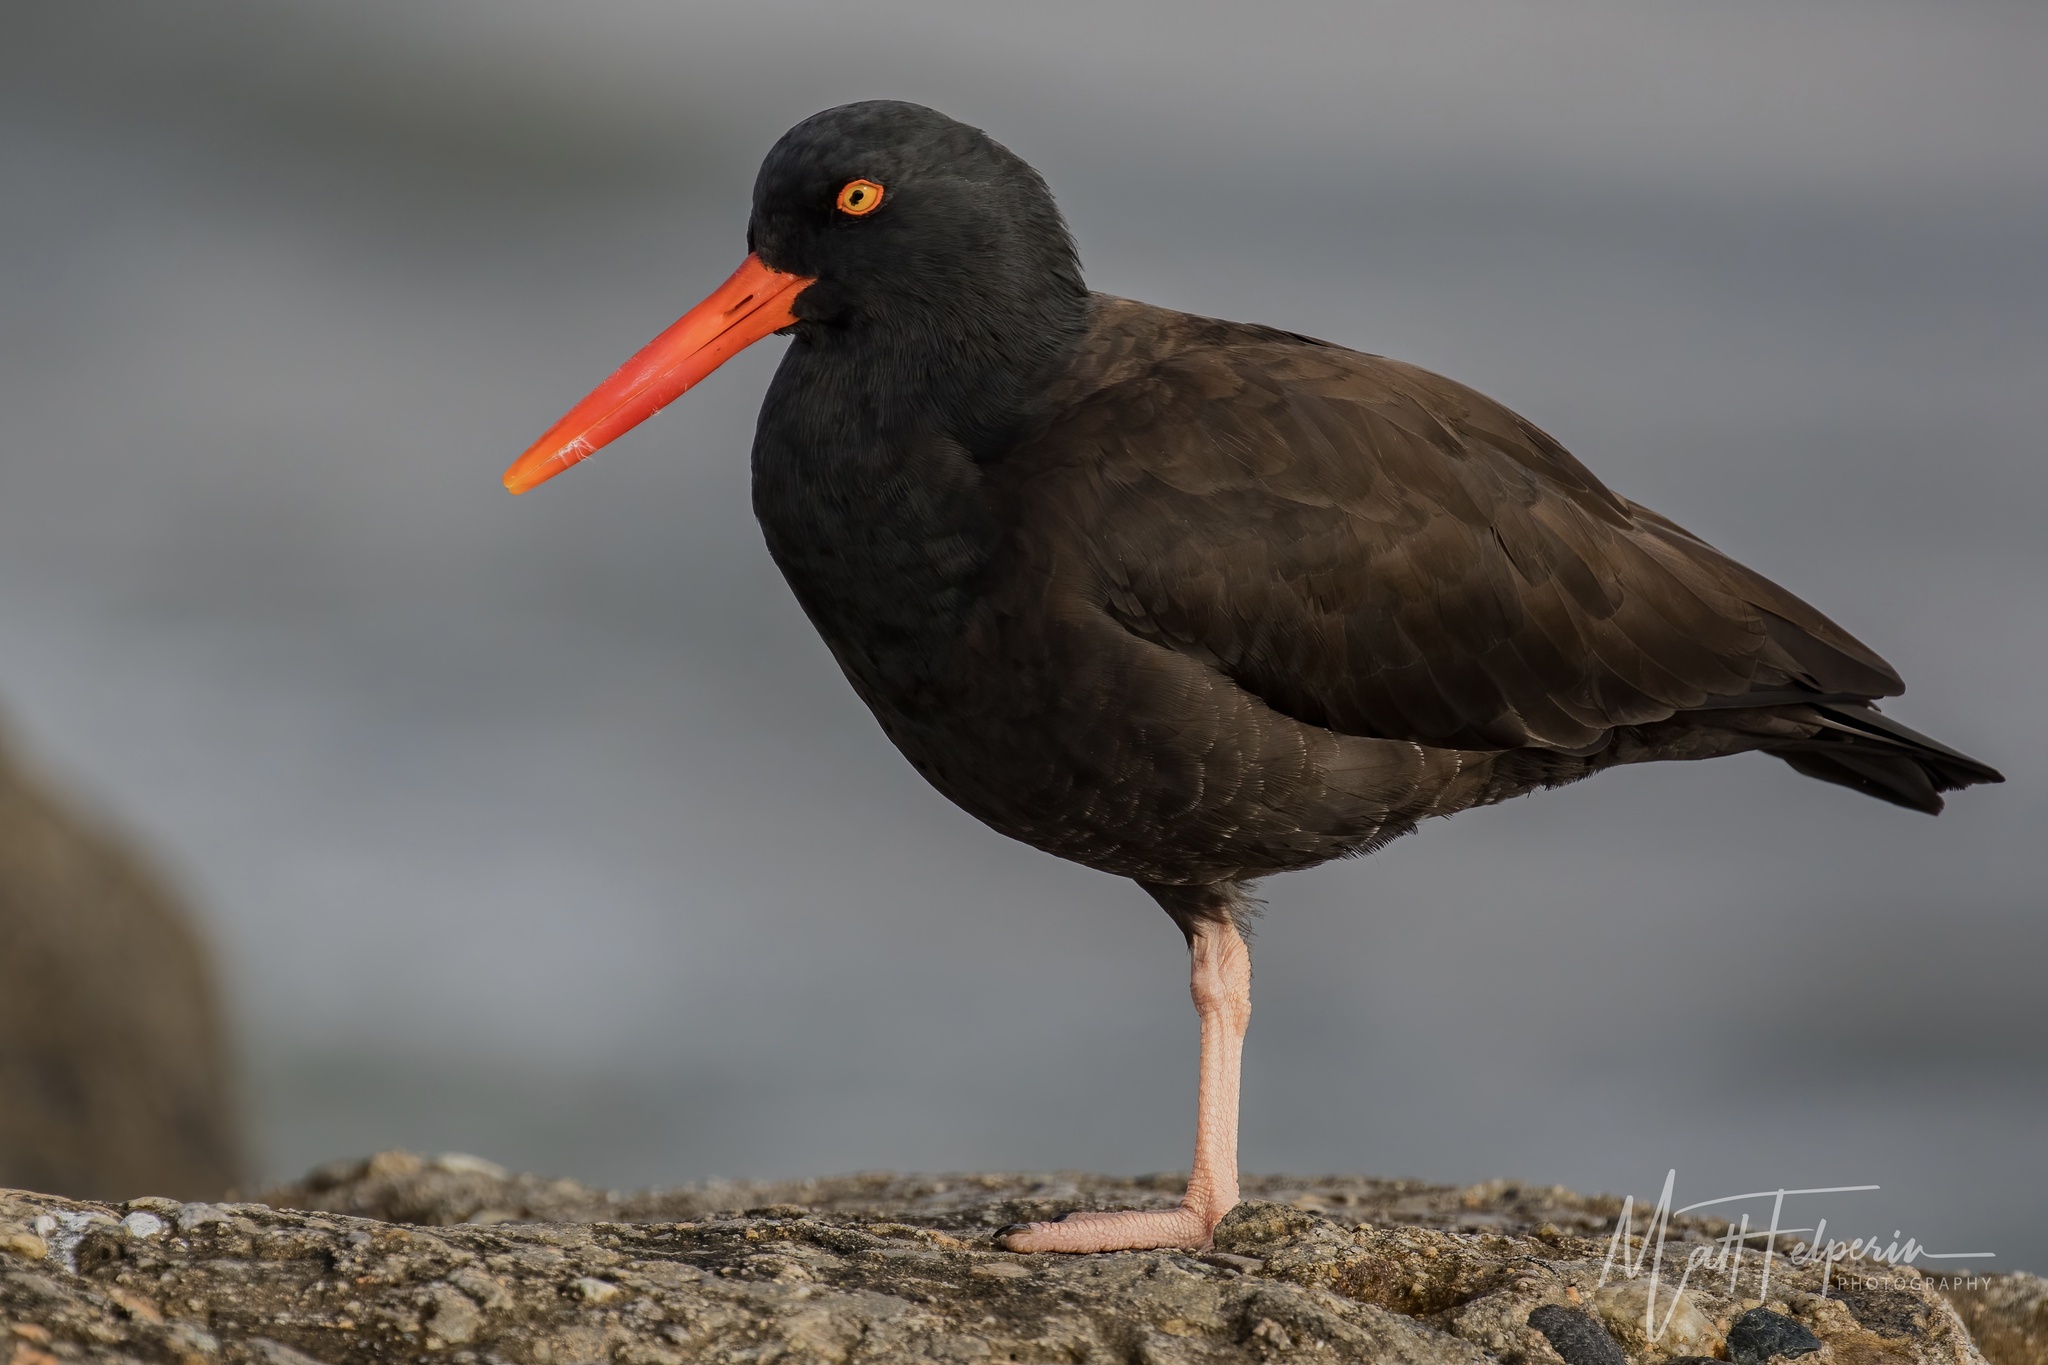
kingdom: Animalia
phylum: Chordata
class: Aves
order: Charadriiformes
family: Haematopodidae
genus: Haematopus
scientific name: Haematopus bachmani
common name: Black oystercatcher
